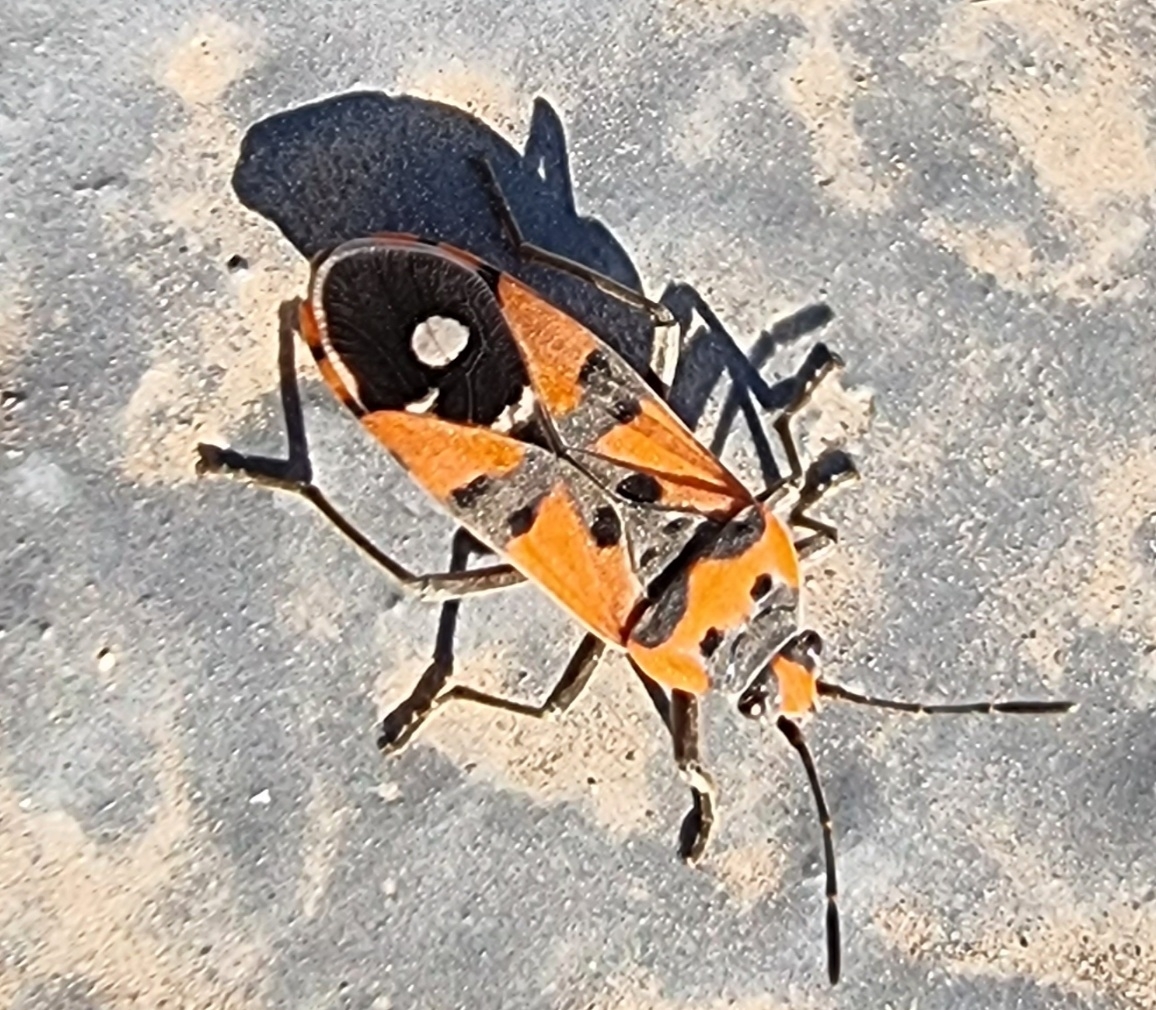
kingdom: Animalia
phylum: Arthropoda
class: Insecta
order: Hemiptera
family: Lygaeidae
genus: Lygaeus
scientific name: Lygaeus equestris
